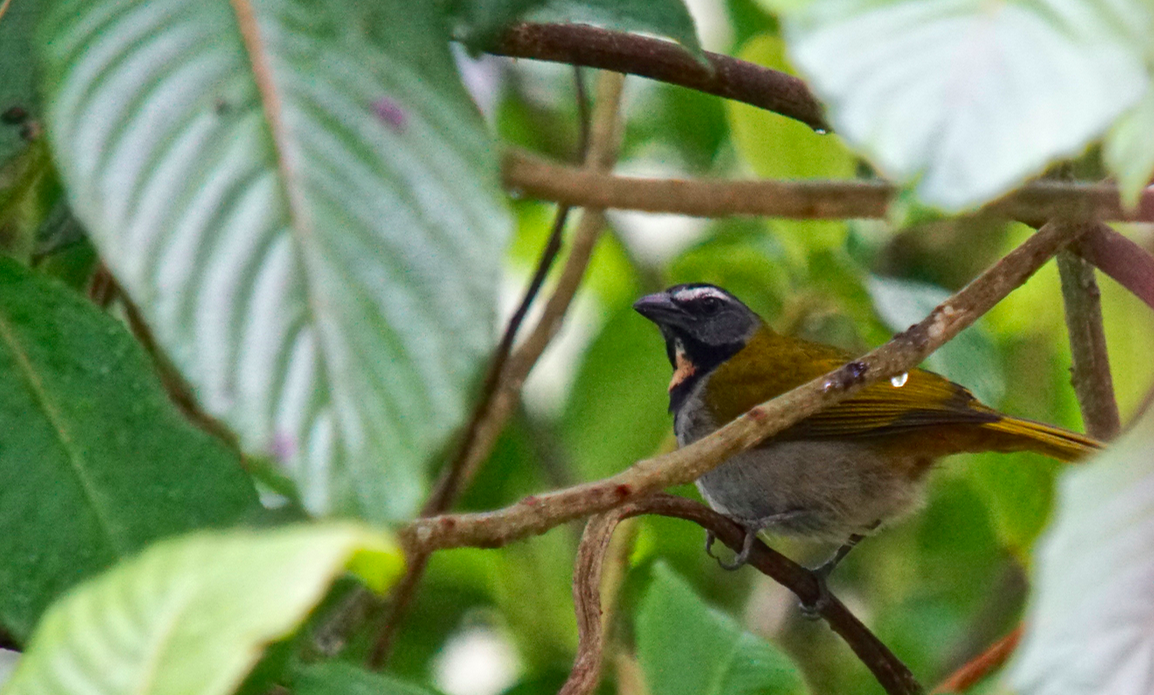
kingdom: Animalia
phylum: Chordata
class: Aves
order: Passeriformes
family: Thraupidae
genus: Saltator
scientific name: Saltator maximus
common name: Buff-throated saltator
